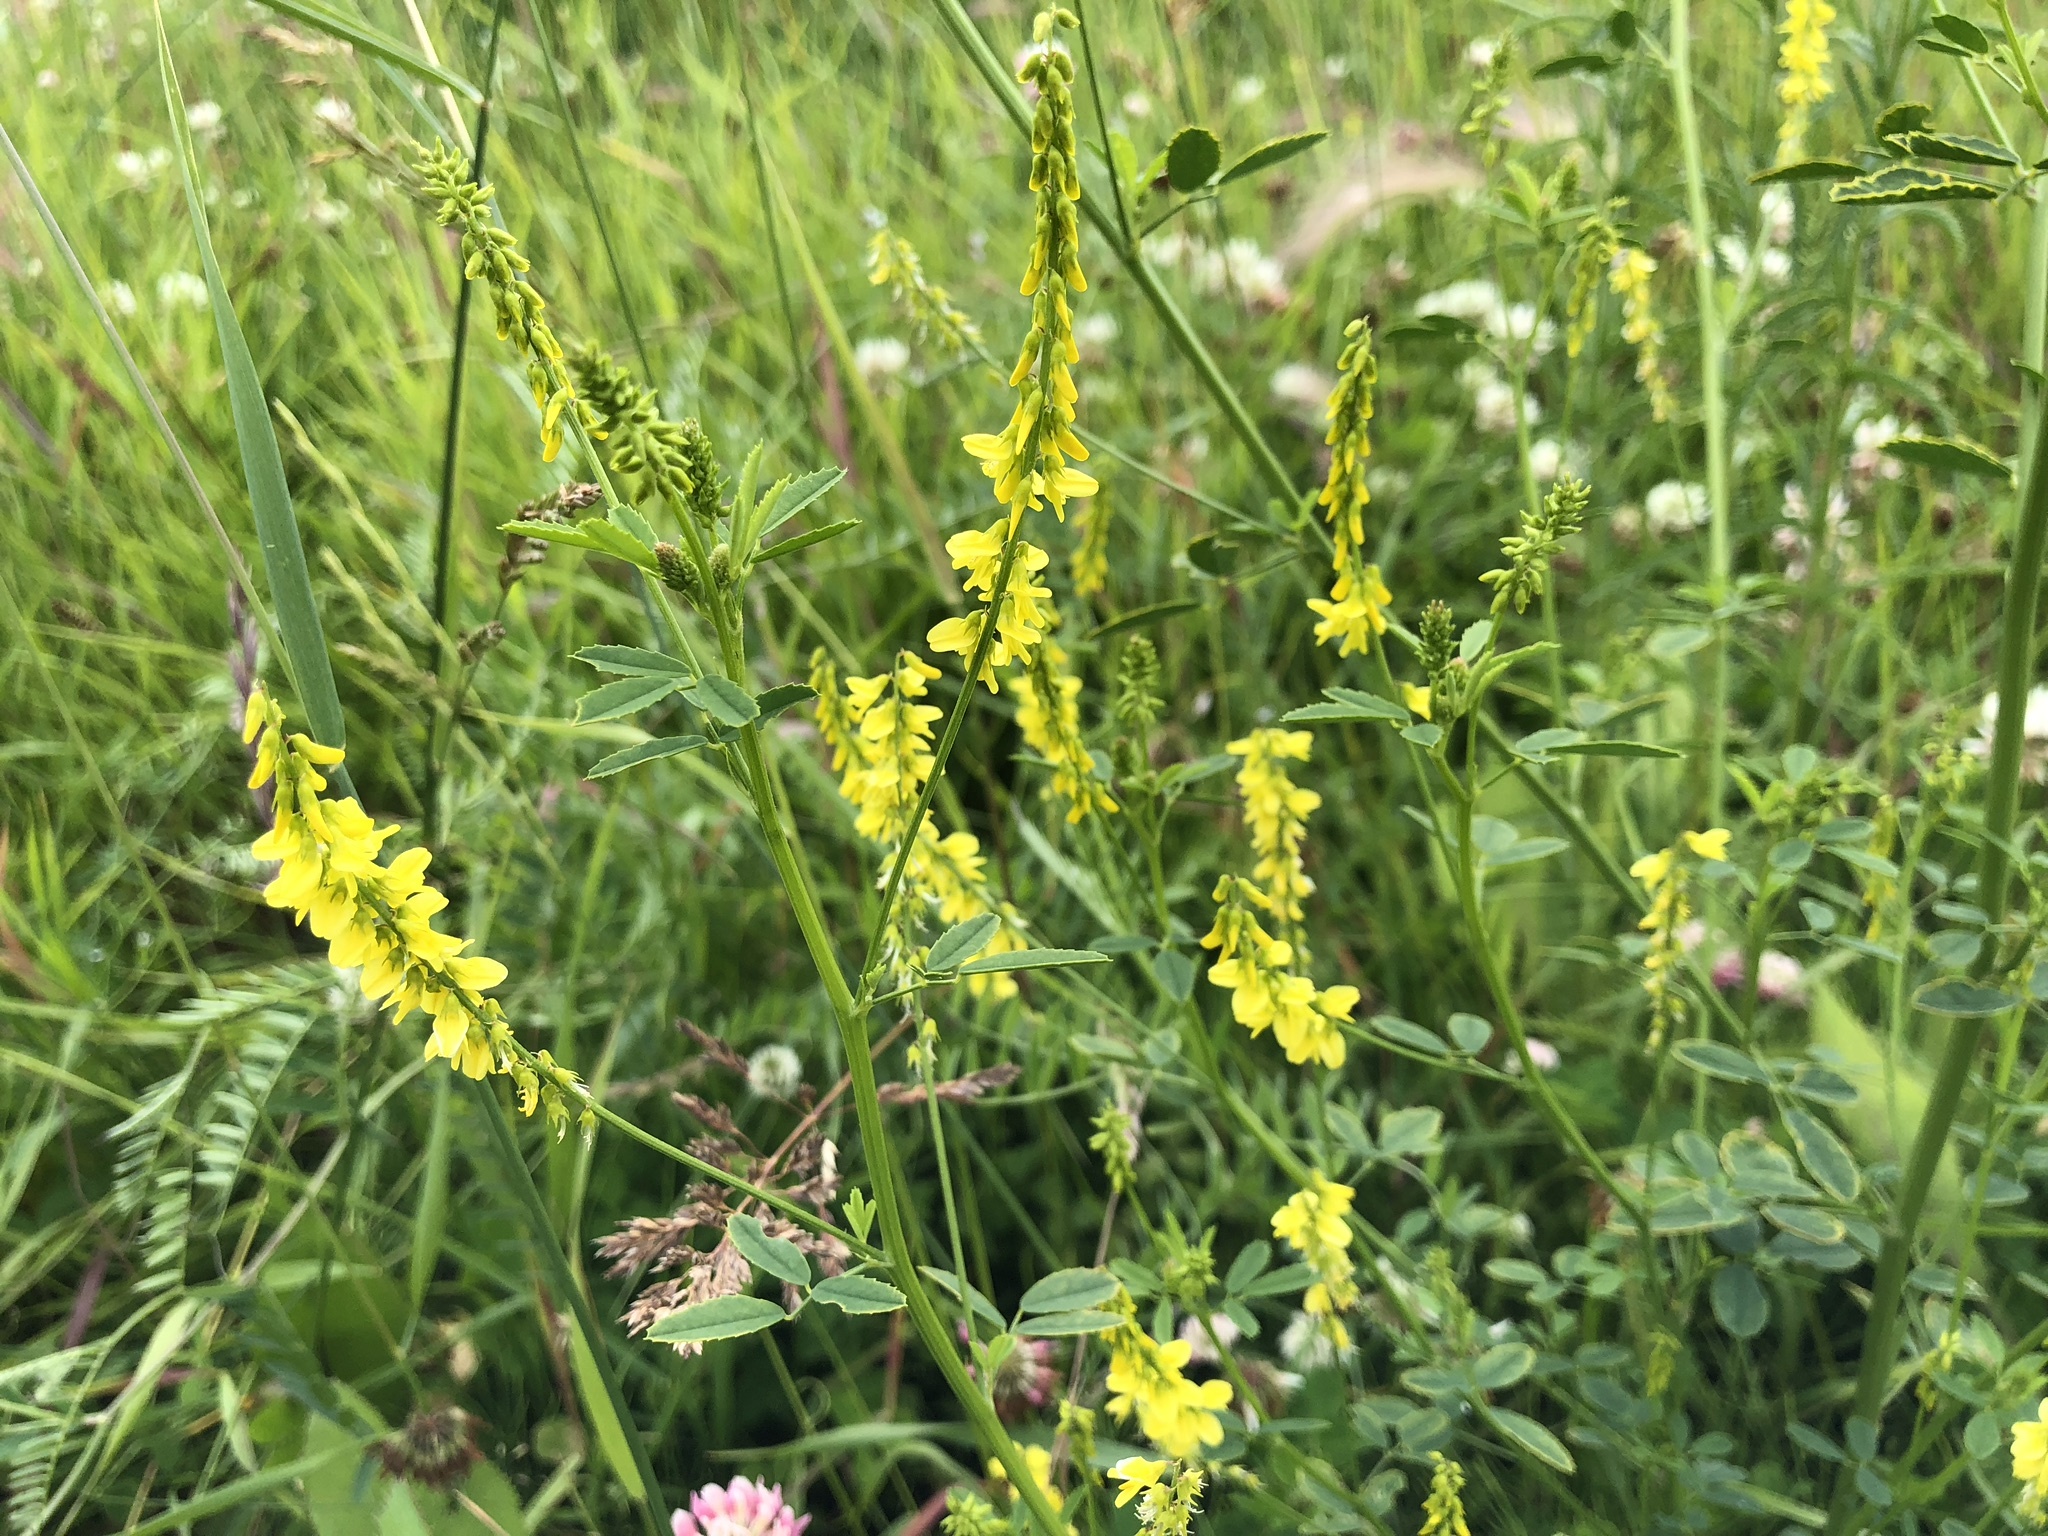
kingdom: Plantae
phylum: Tracheophyta
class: Magnoliopsida
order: Fabales
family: Fabaceae
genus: Melilotus
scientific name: Melilotus officinalis
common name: Sweetclover
